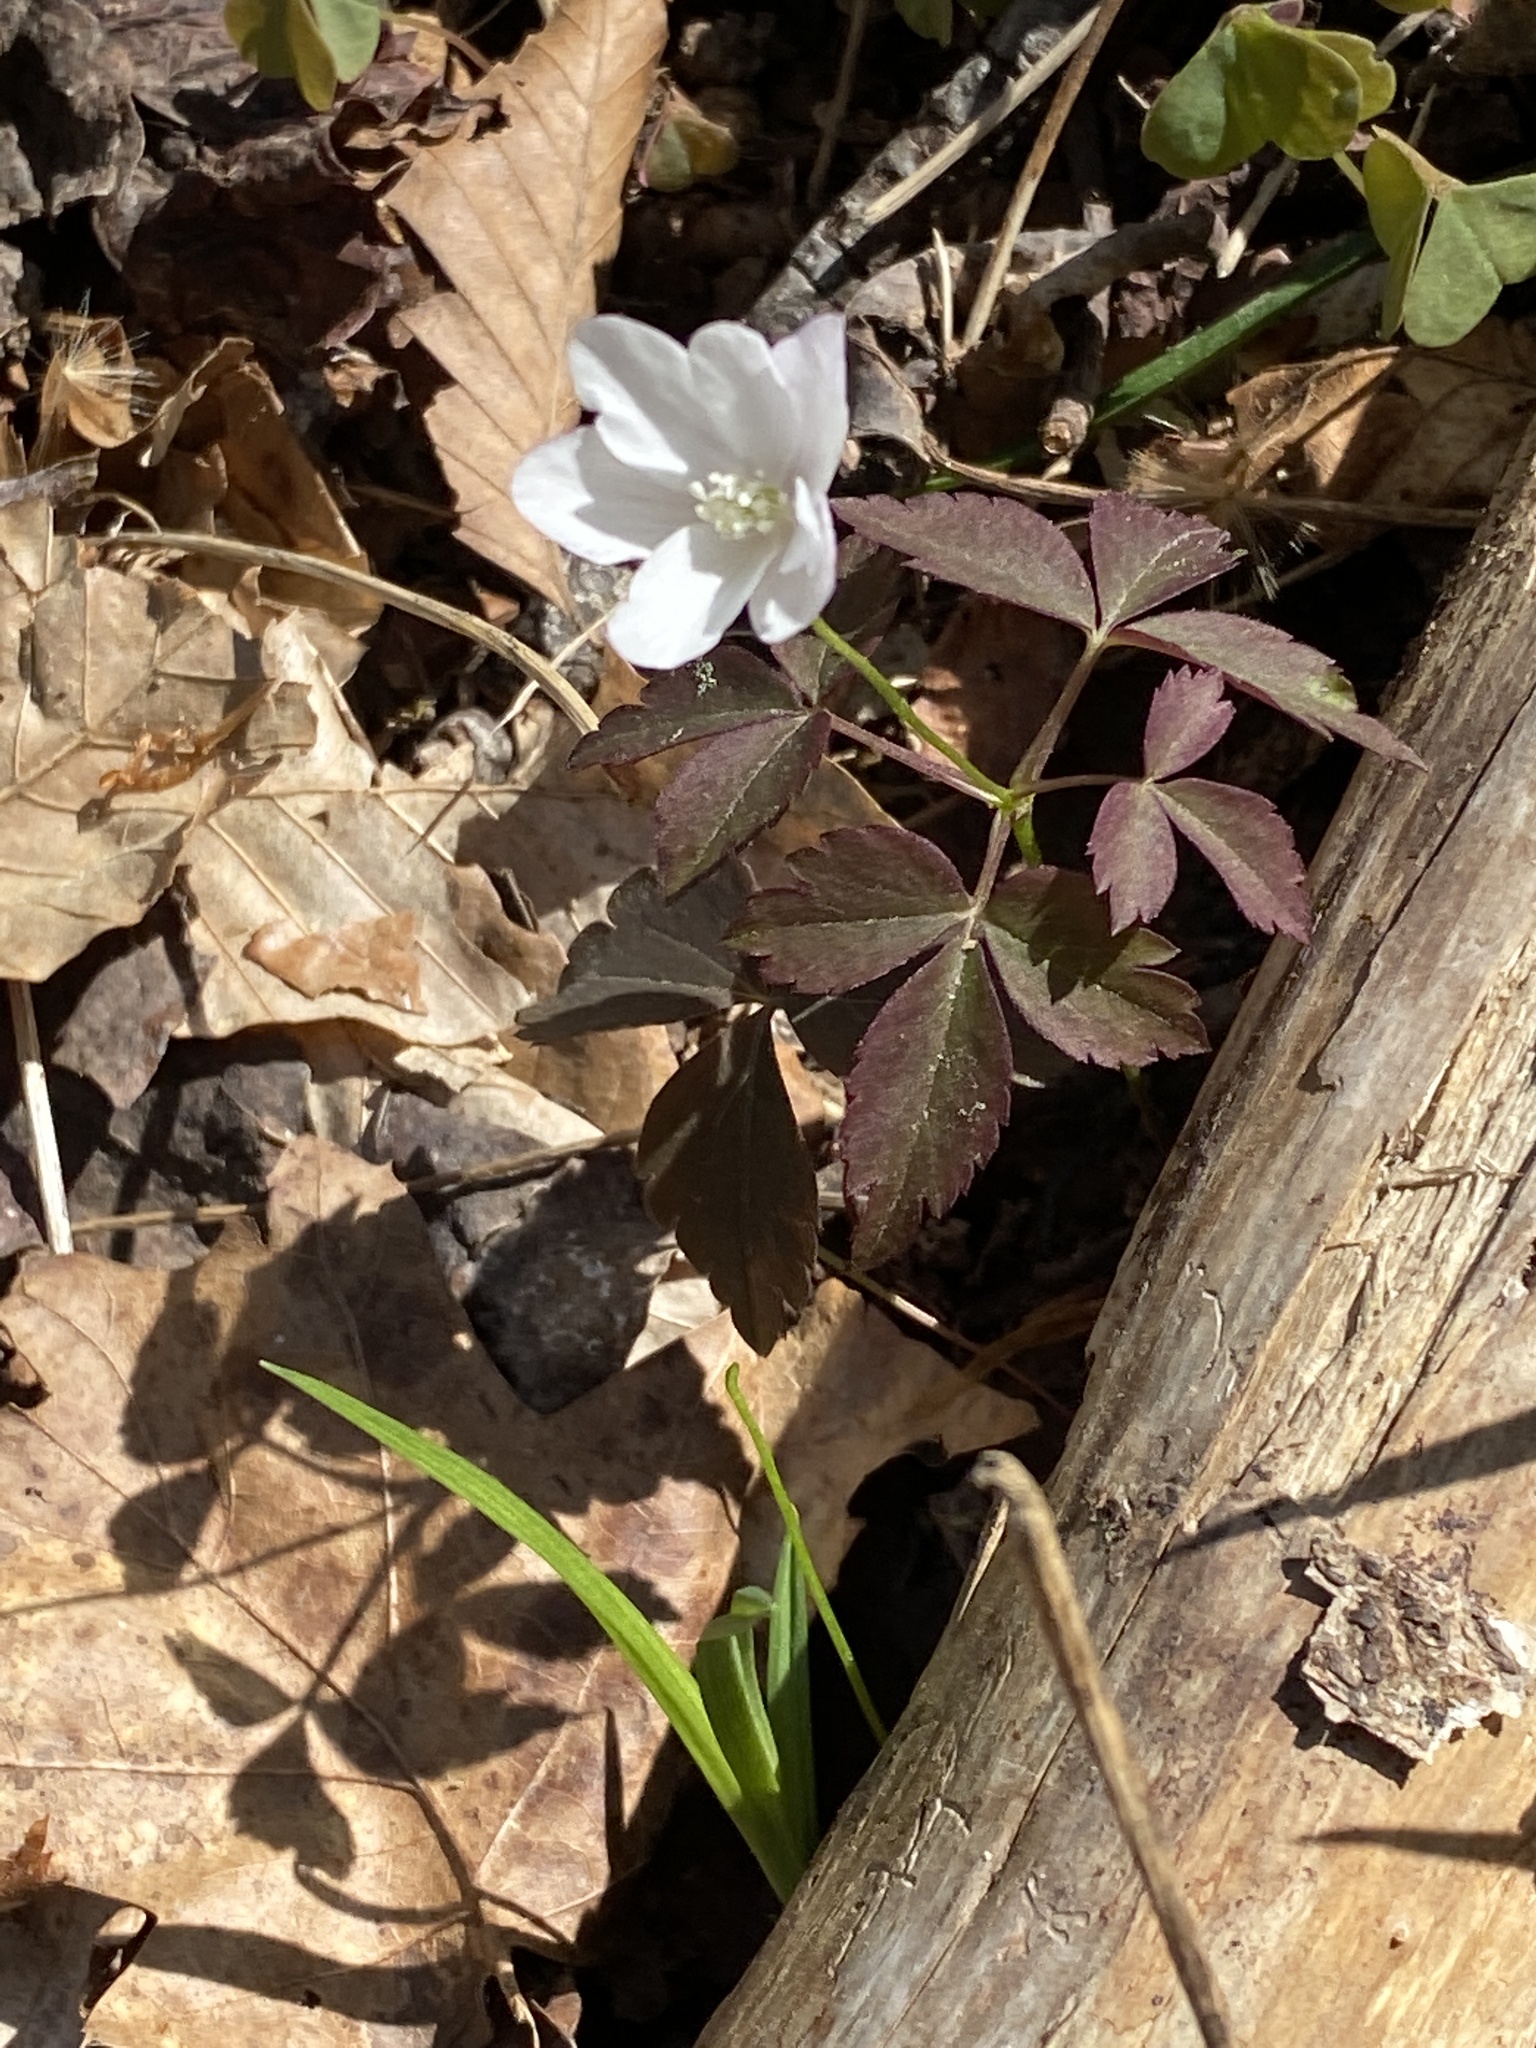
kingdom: Plantae
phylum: Tracheophyta
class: Magnoliopsida
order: Ranunculales
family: Ranunculaceae
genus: Anemone
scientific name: Anemone lancifolia
